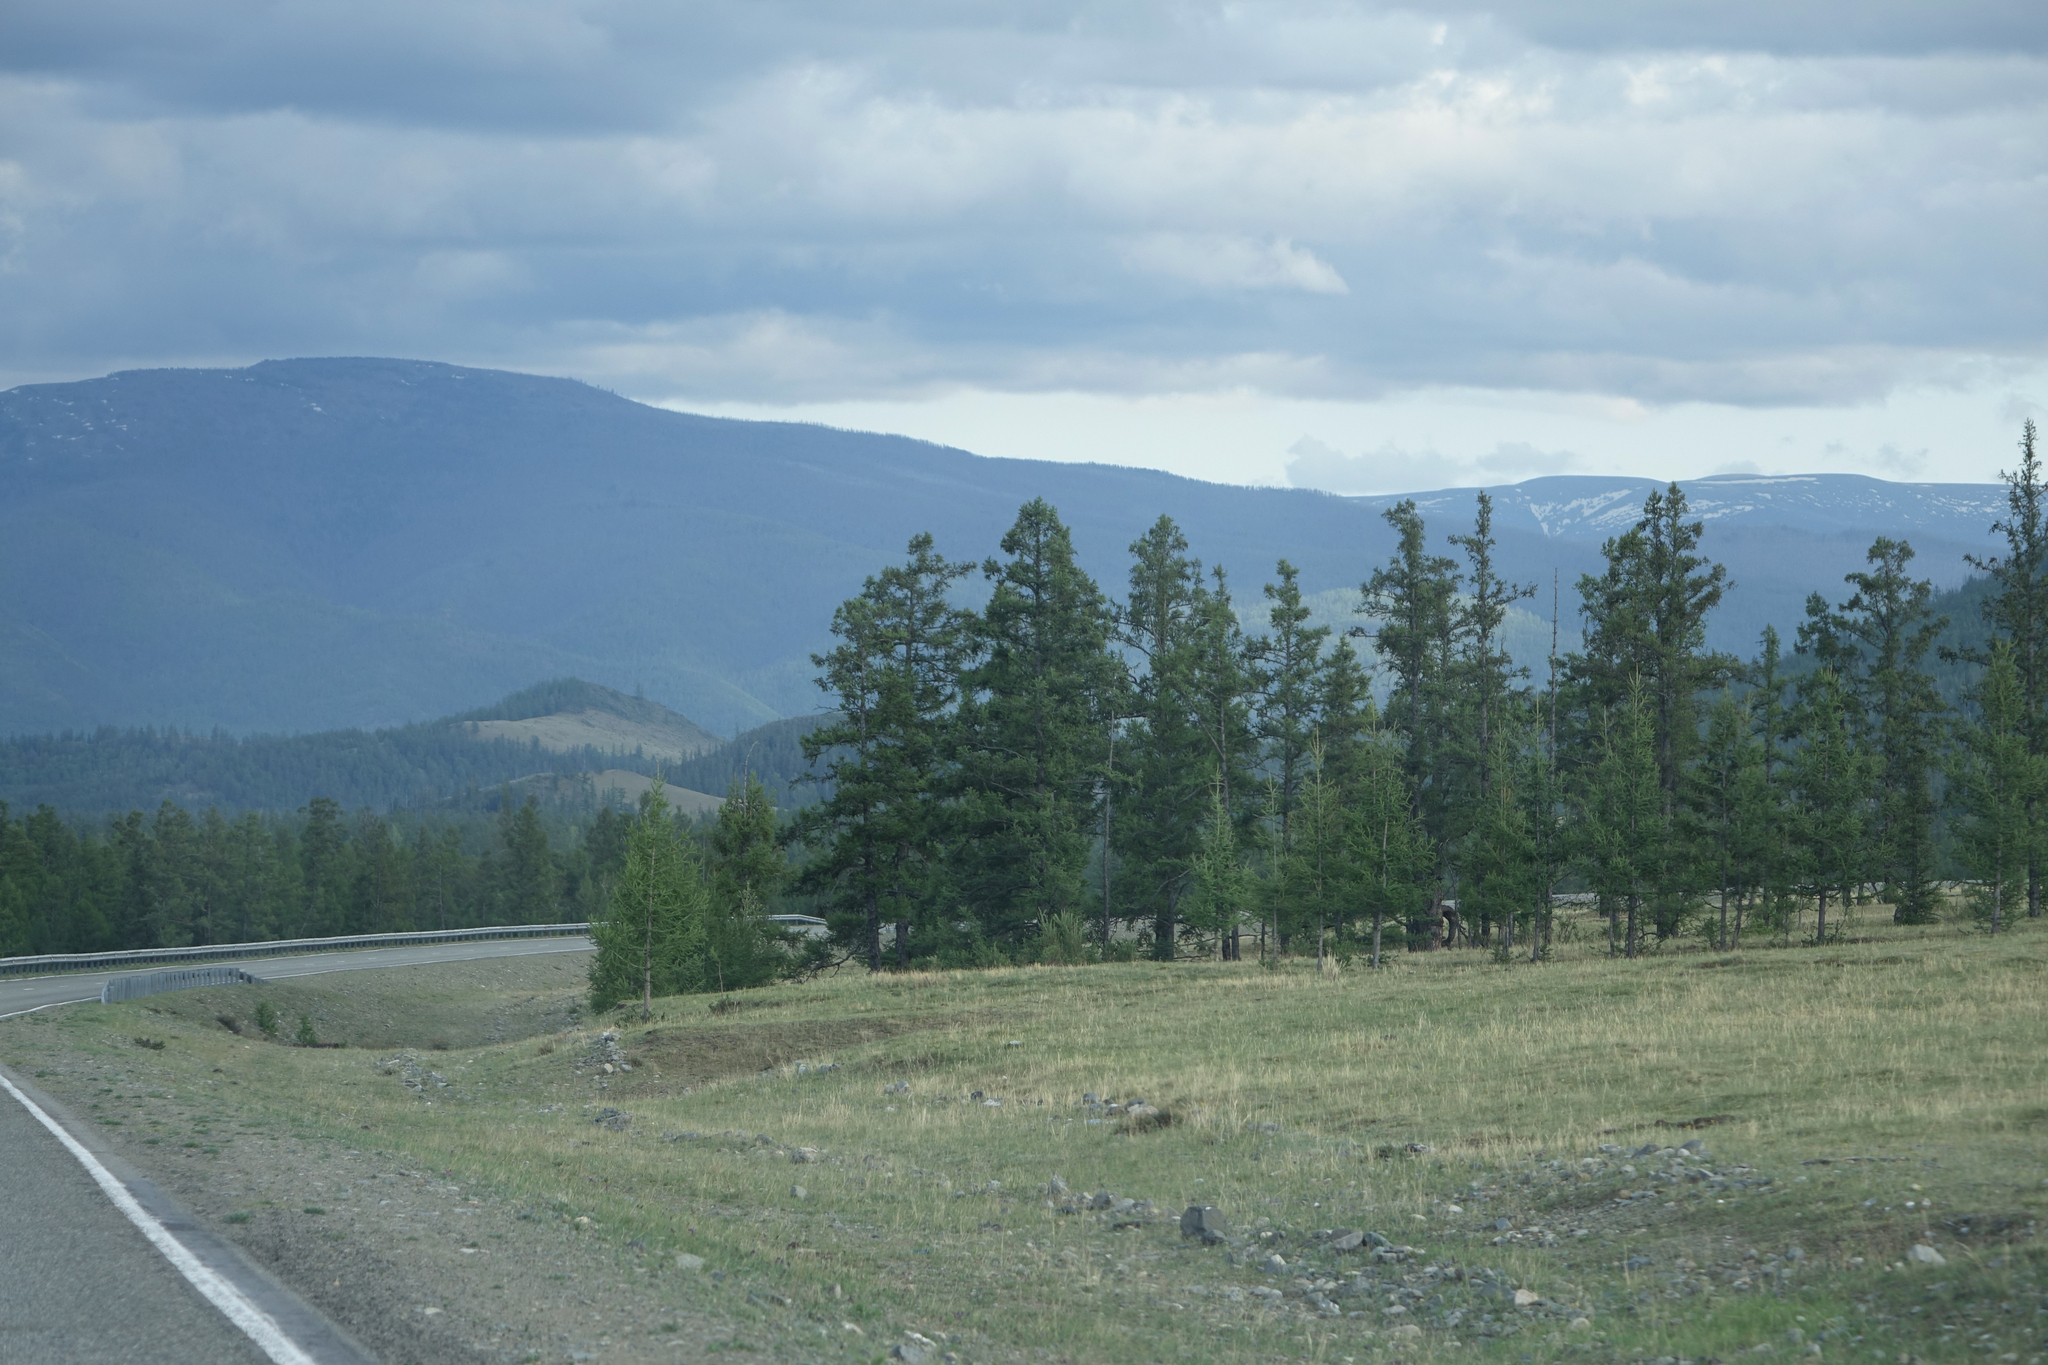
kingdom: Plantae
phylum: Tracheophyta
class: Pinopsida
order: Pinales
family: Pinaceae
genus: Larix
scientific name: Larix sibirica
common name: Siberian larch
